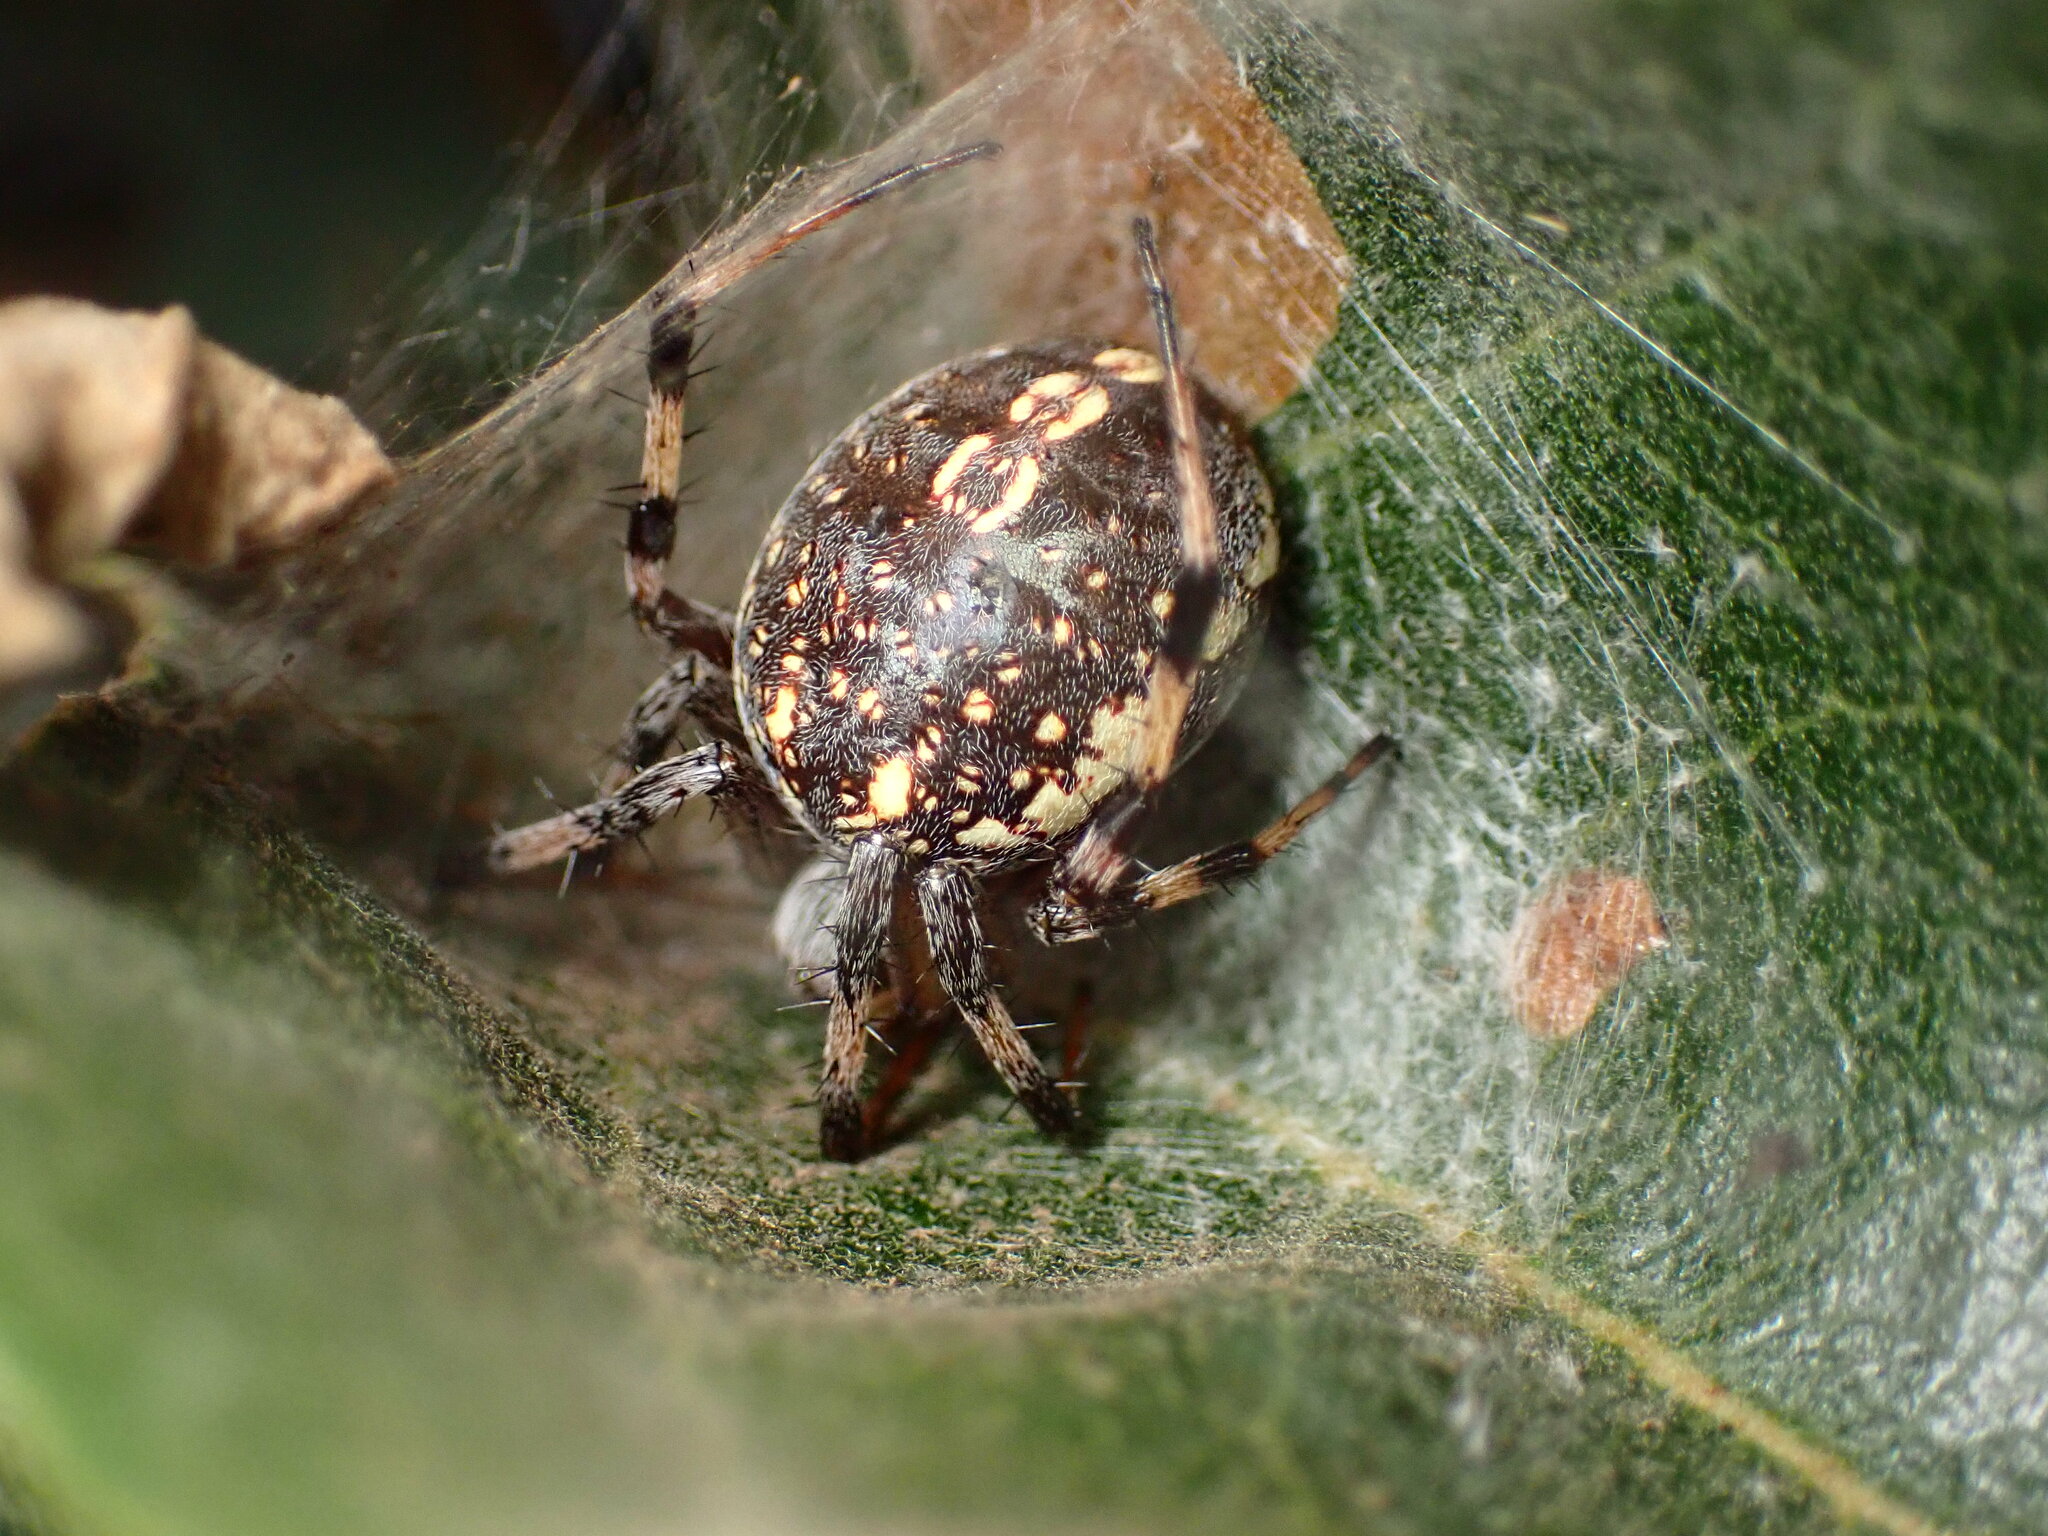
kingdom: Animalia
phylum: Arthropoda
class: Arachnida
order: Araneae
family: Araneidae
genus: Neoscona
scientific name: Neoscona oaxacensis
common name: Orb weavers
